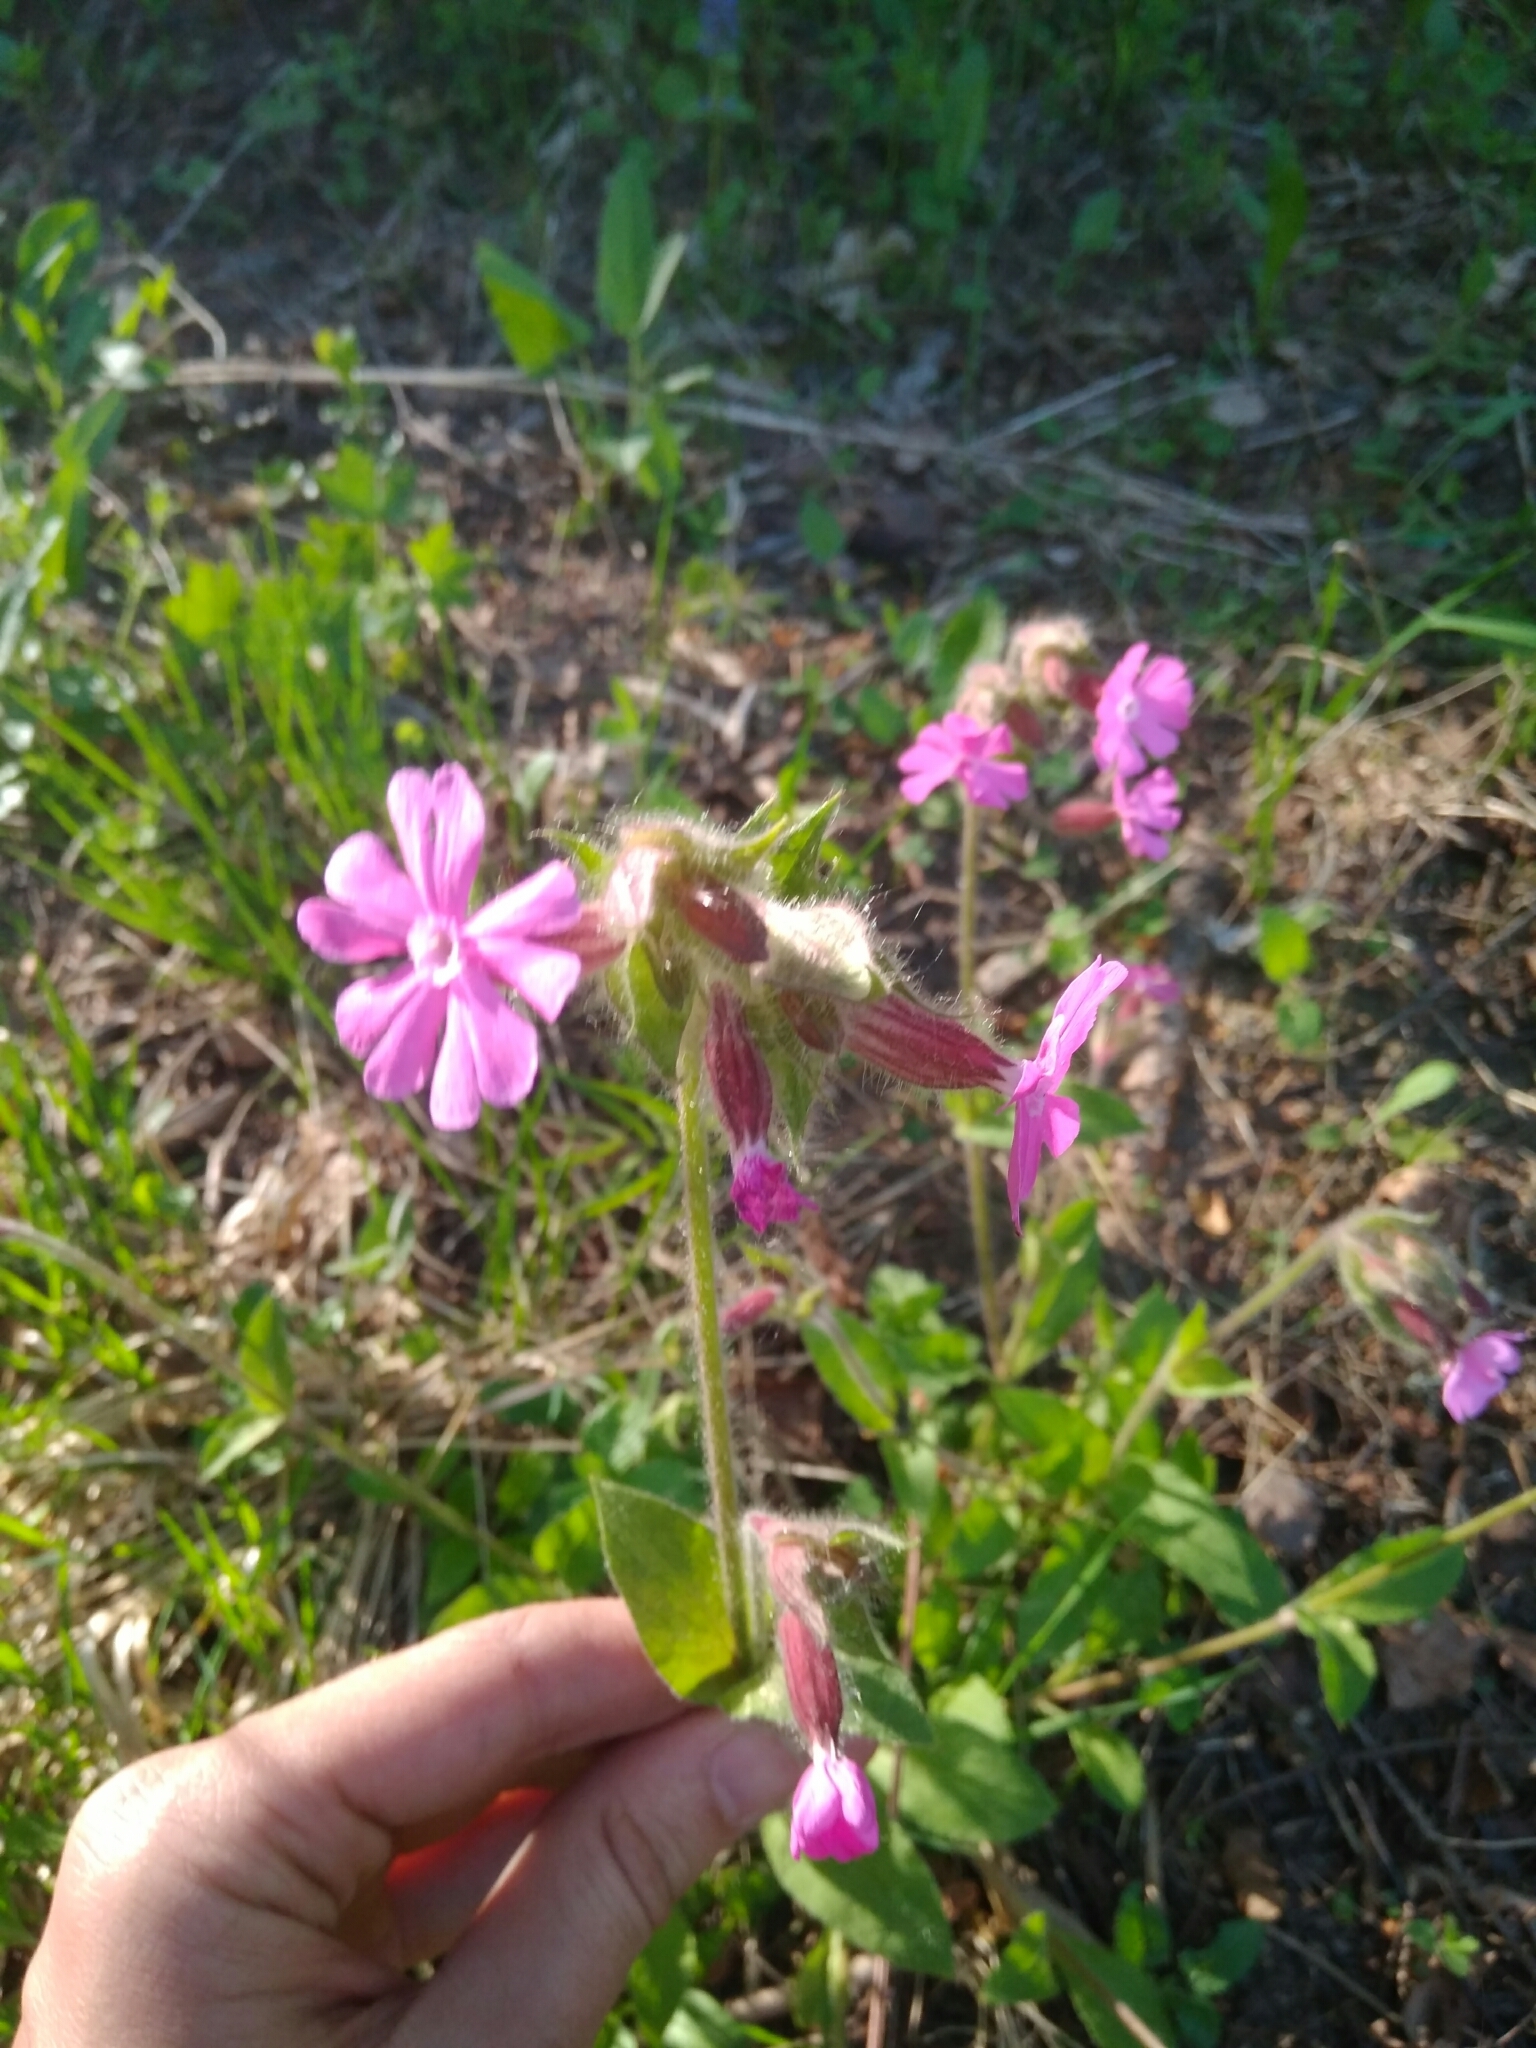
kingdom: Plantae
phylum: Tracheophyta
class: Magnoliopsida
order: Caryophyllales
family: Caryophyllaceae
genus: Silene
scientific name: Silene dioica
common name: Red campion
